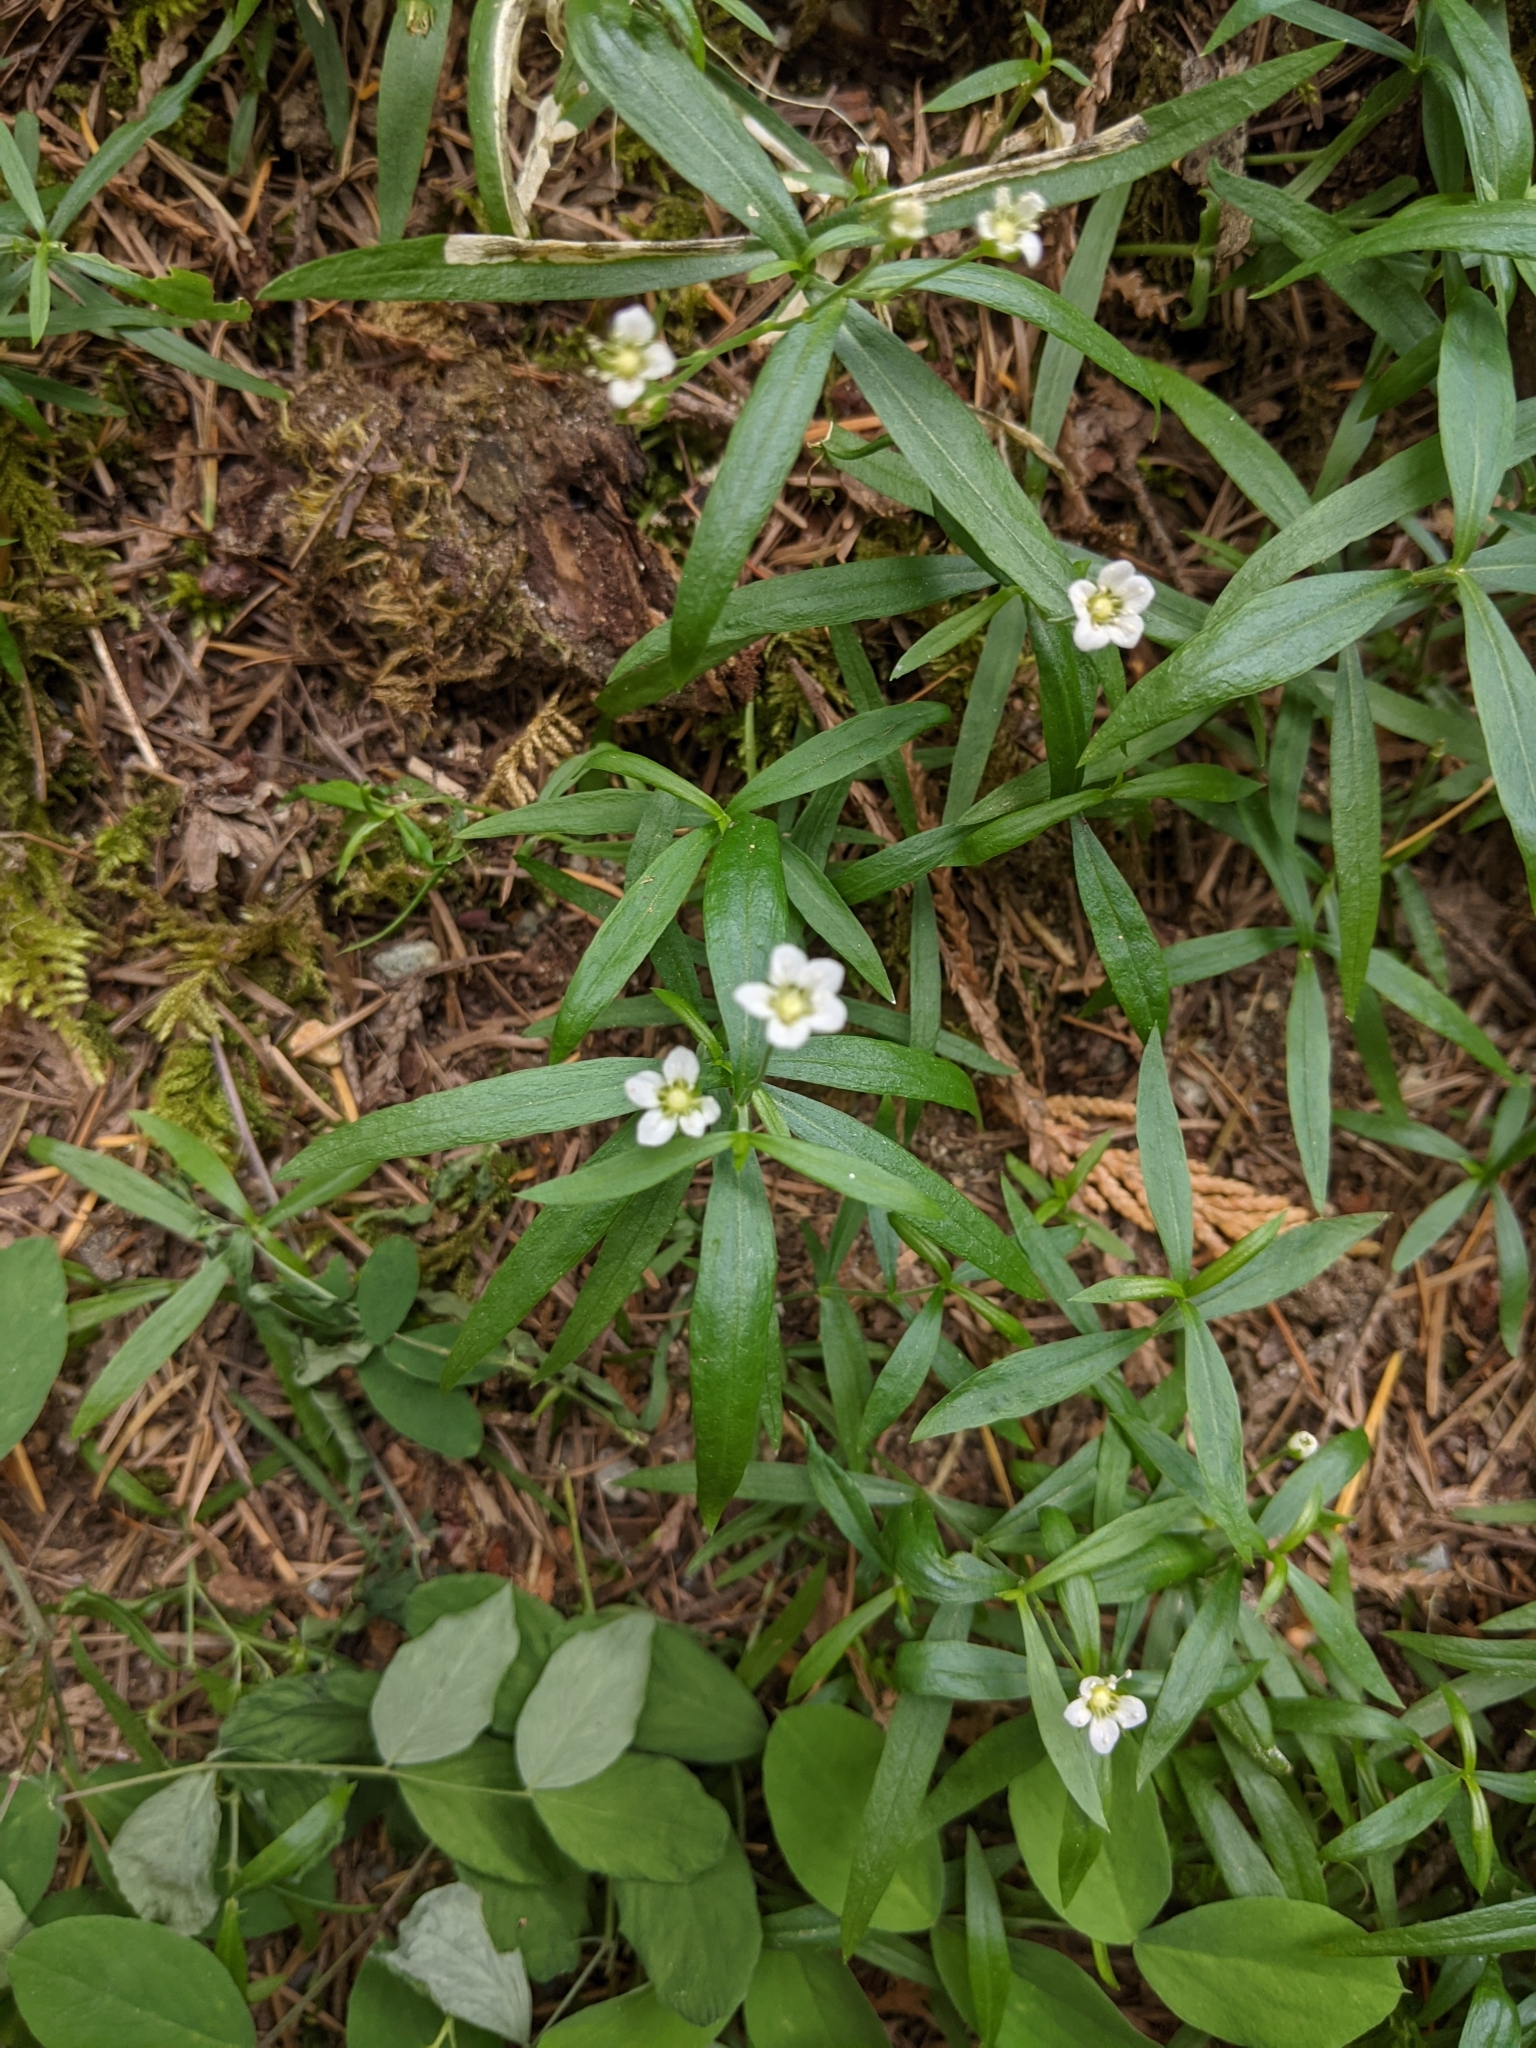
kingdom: Plantae
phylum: Tracheophyta
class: Magnoliopsida
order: Caryophyllales
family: Caryophyllaceae
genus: Moehringia
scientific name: Moehringia macrophylla
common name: Big-leaf sandwort
